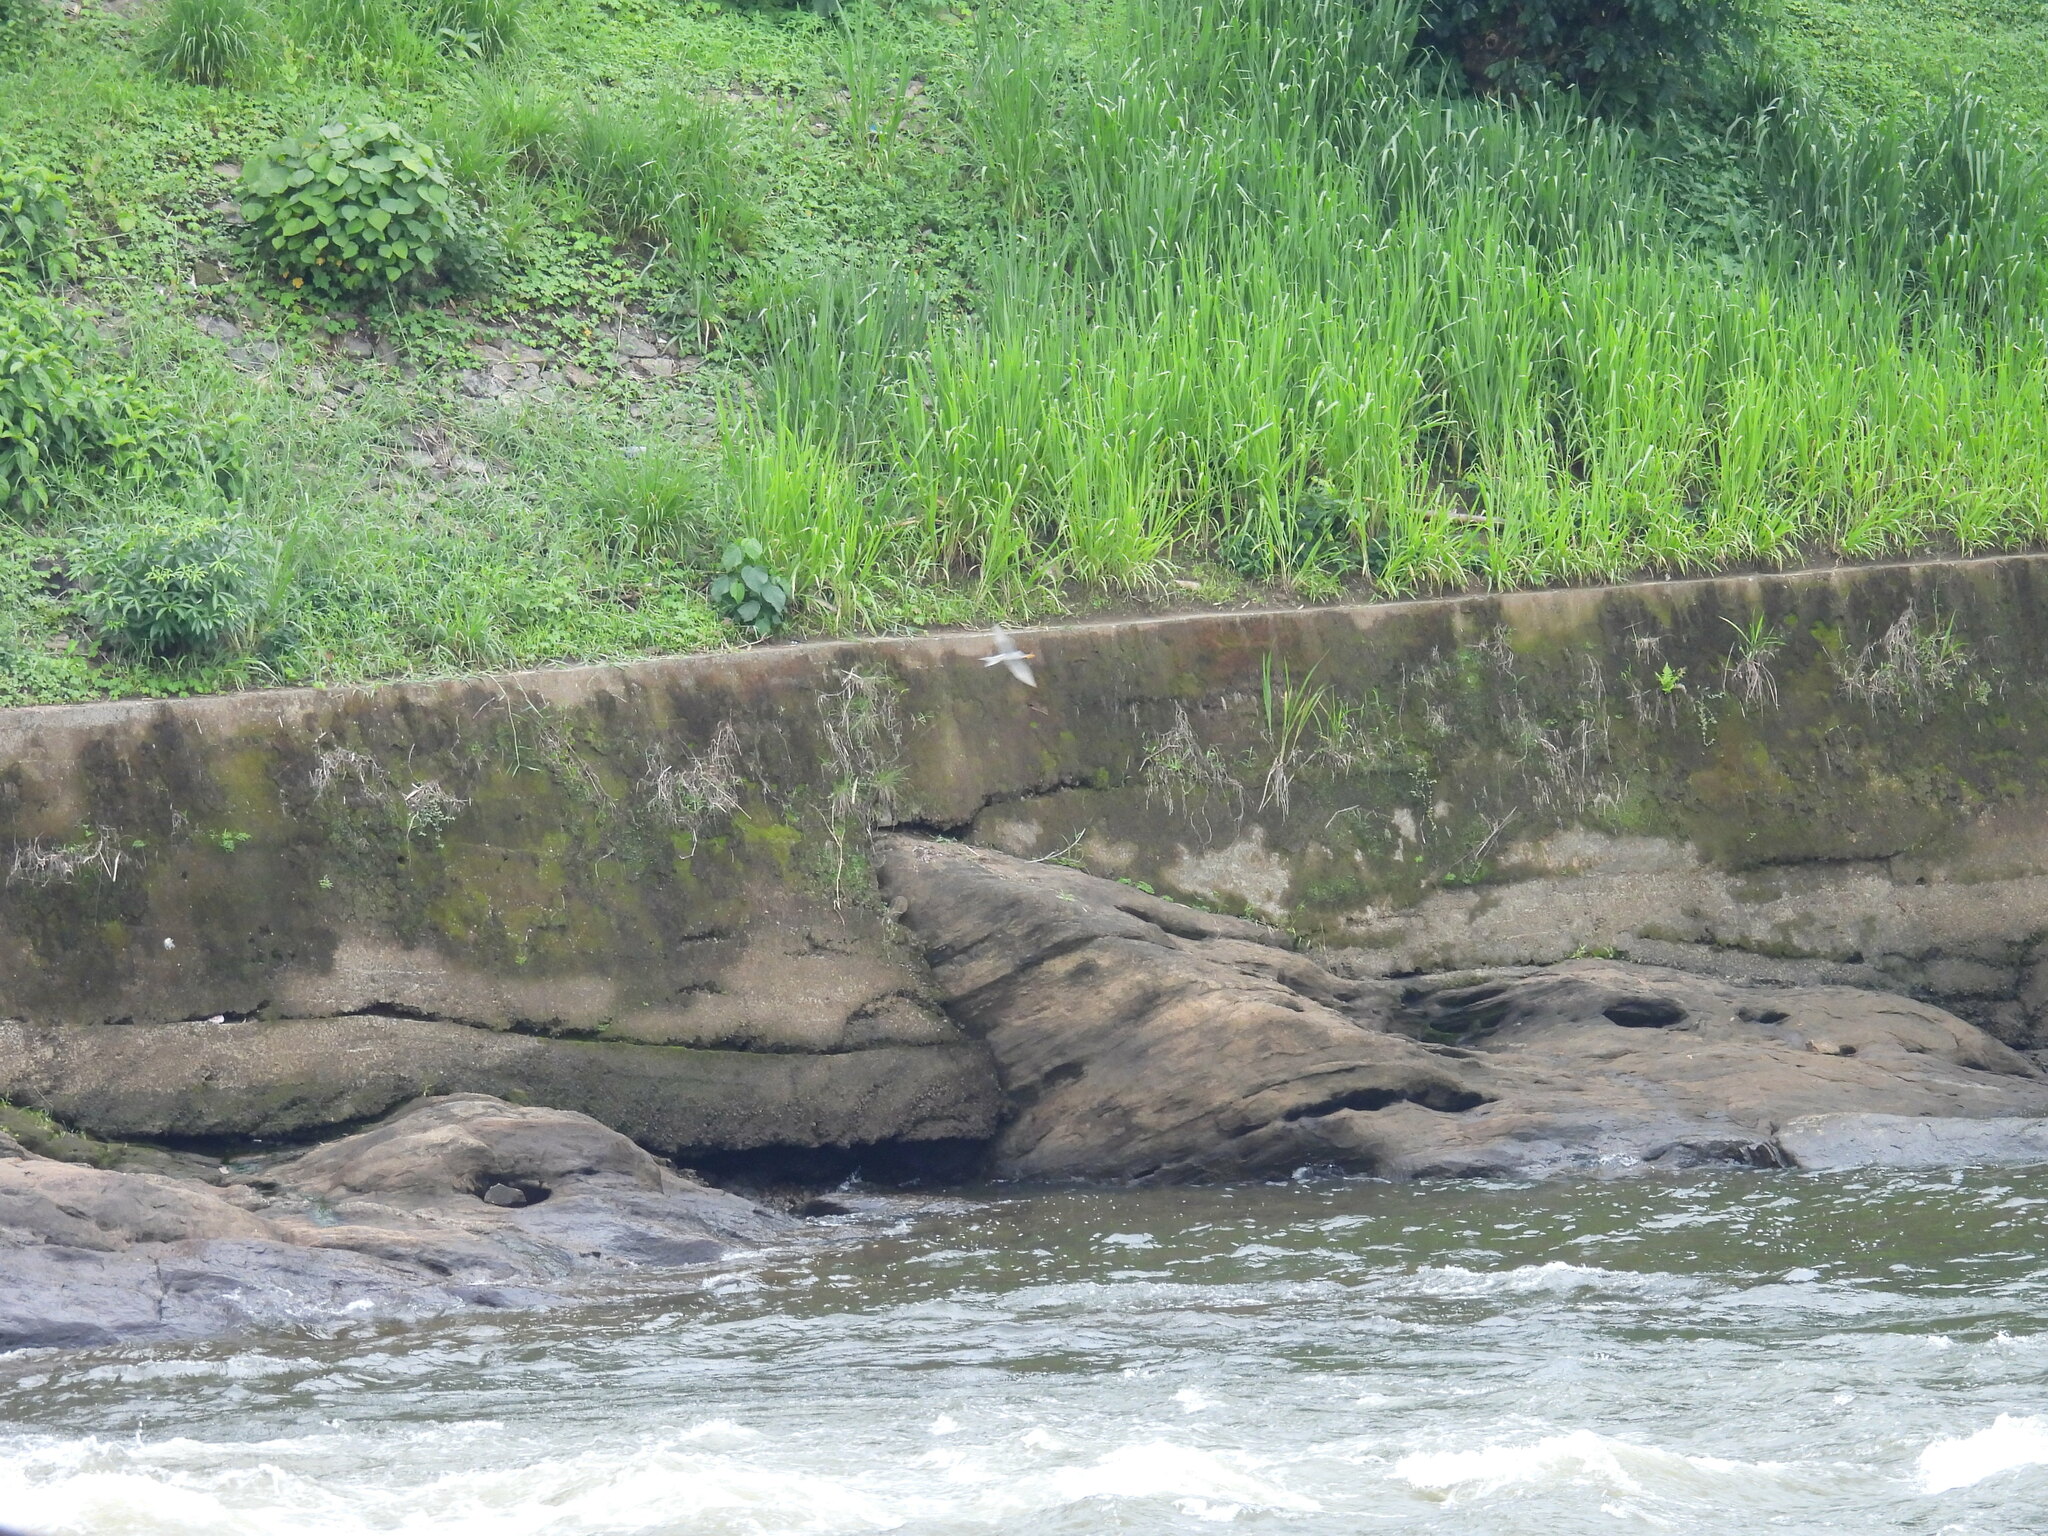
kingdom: Animalia
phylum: Chordata
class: Aves
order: Charadriiformes
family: Laridae
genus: Sterna
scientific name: Sterna aurantia
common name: River tern
